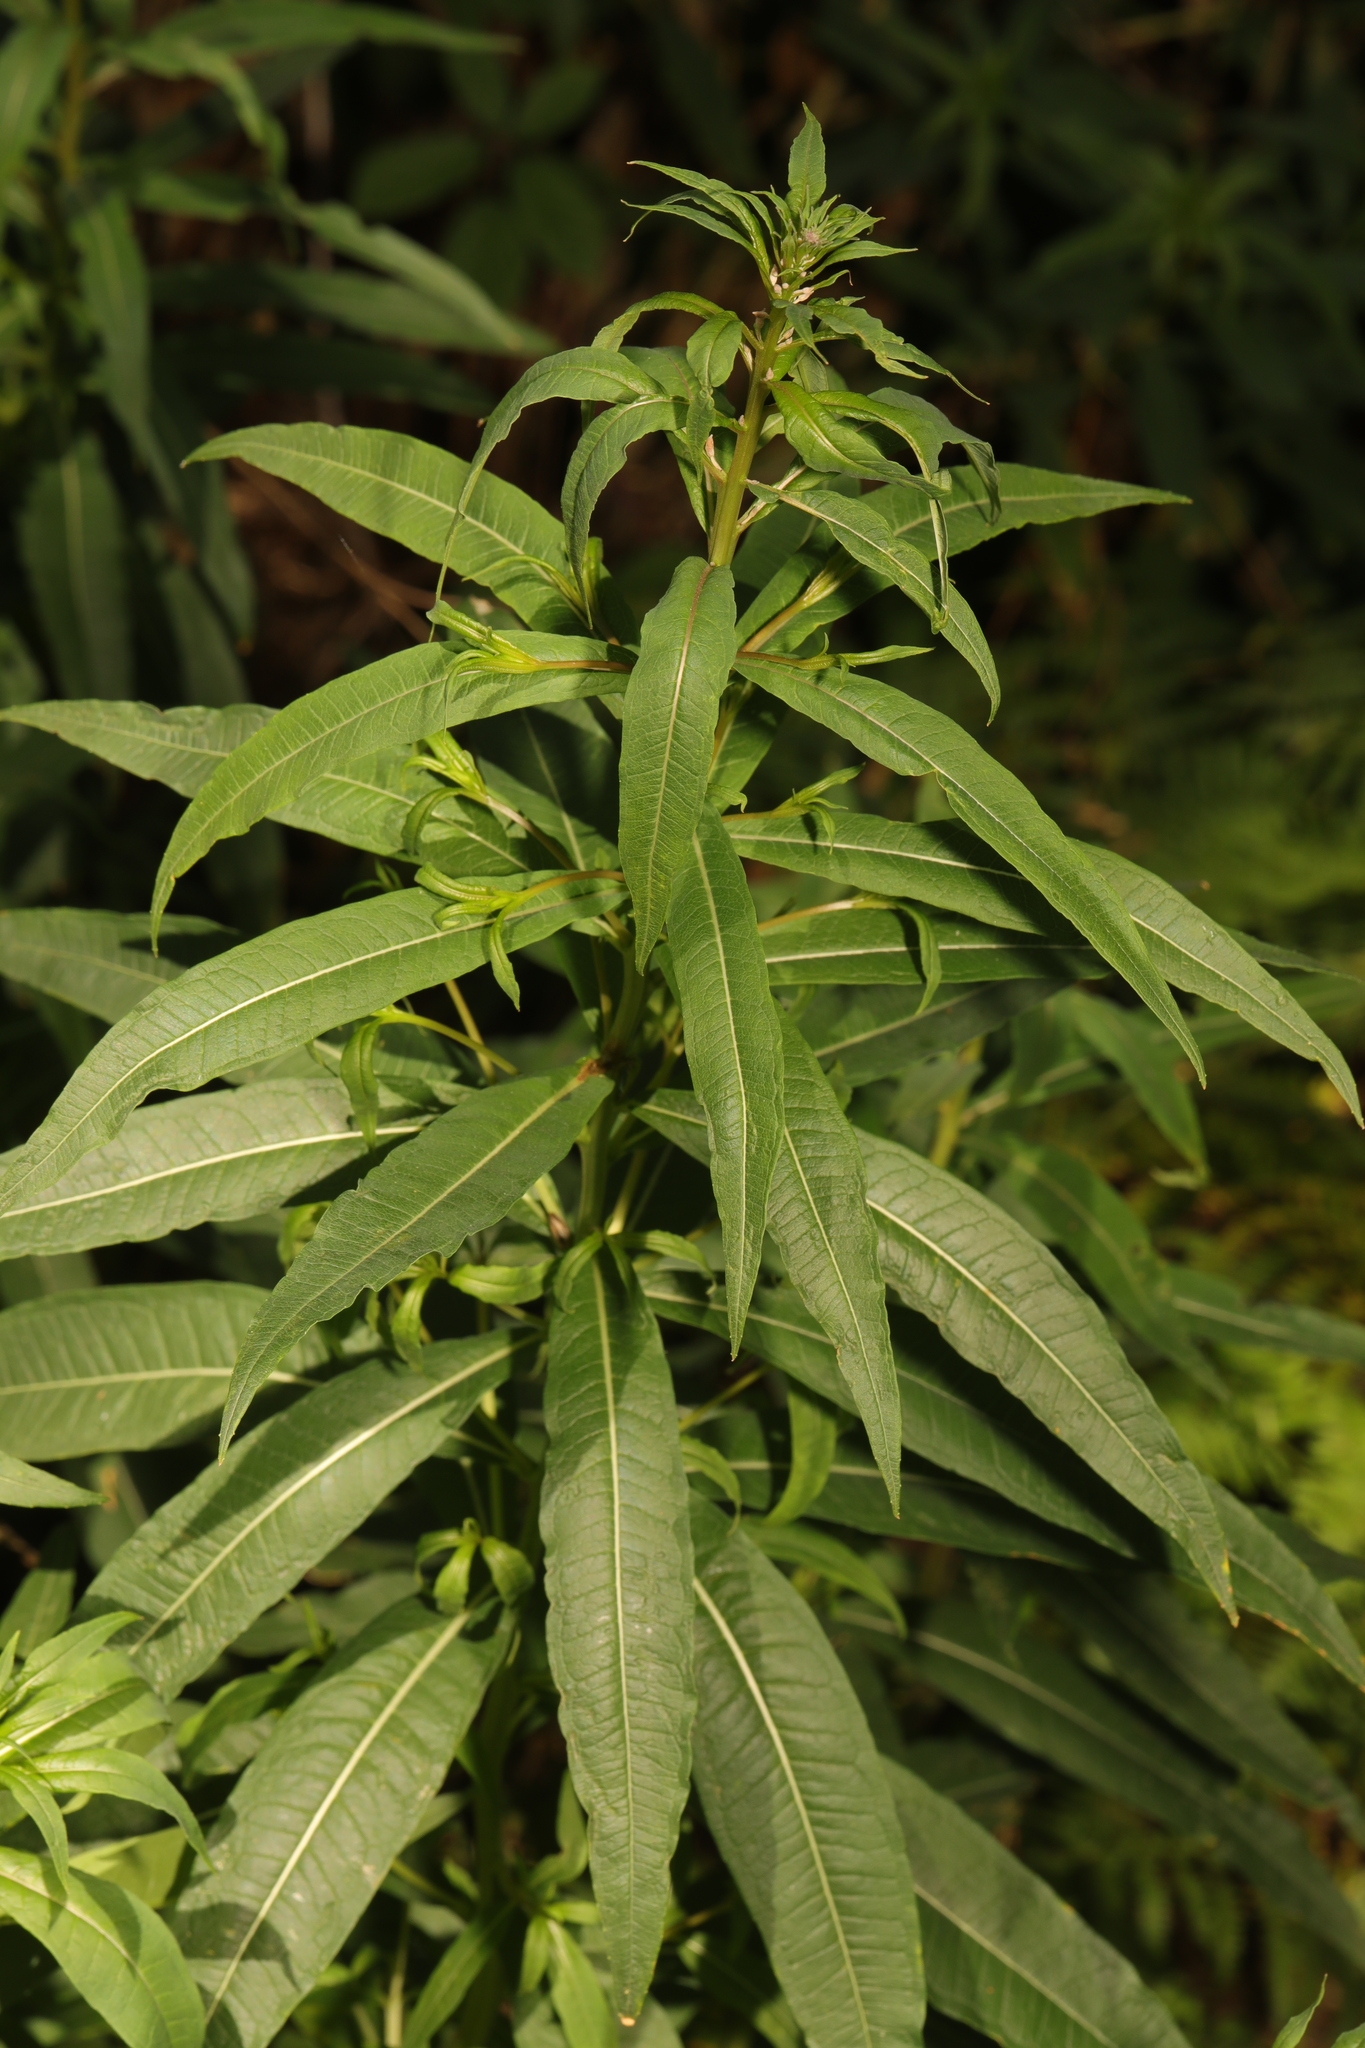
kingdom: Plantae
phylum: Tracheophyta
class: Magnoliopsida
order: Myrtales
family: Onagraceae
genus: Chamaenerion
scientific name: Chamaenerion angustifolium
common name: Fireweed
